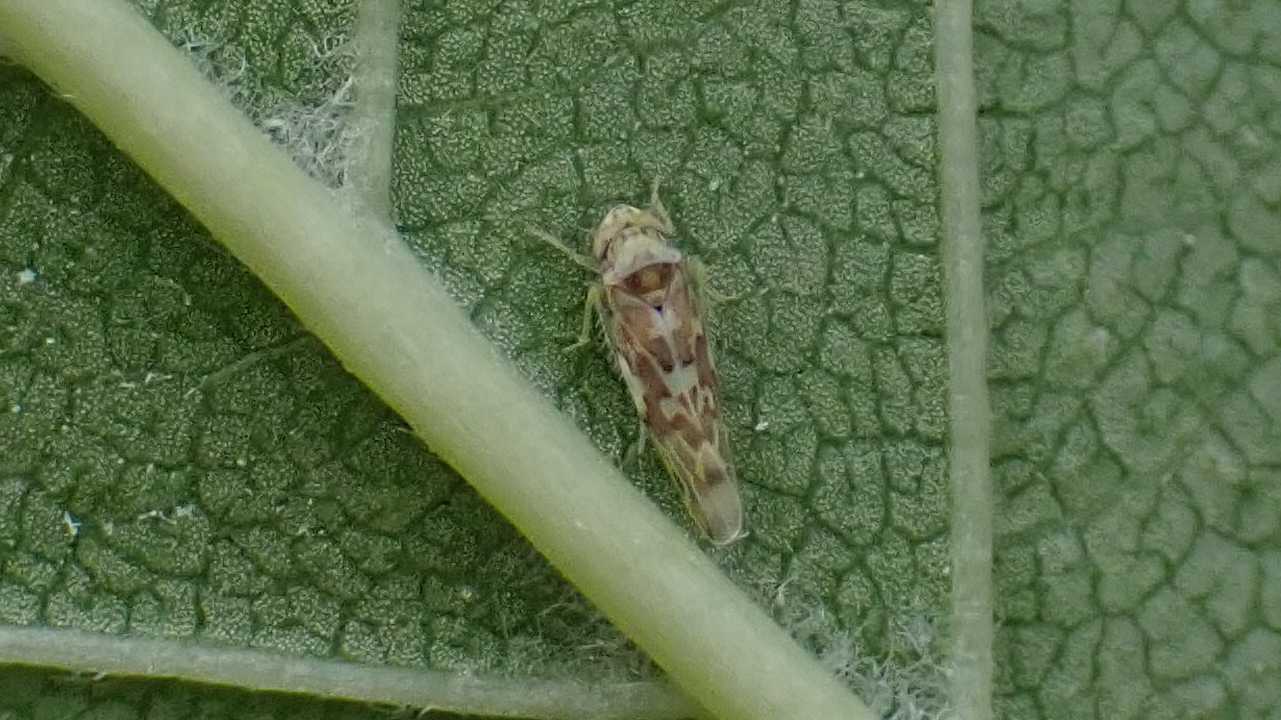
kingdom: Animalia
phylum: Arthropoda
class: Insecta
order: Hemiptera
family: Cicadellidae
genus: Tautoneura
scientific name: Tautoneura polymitusa
